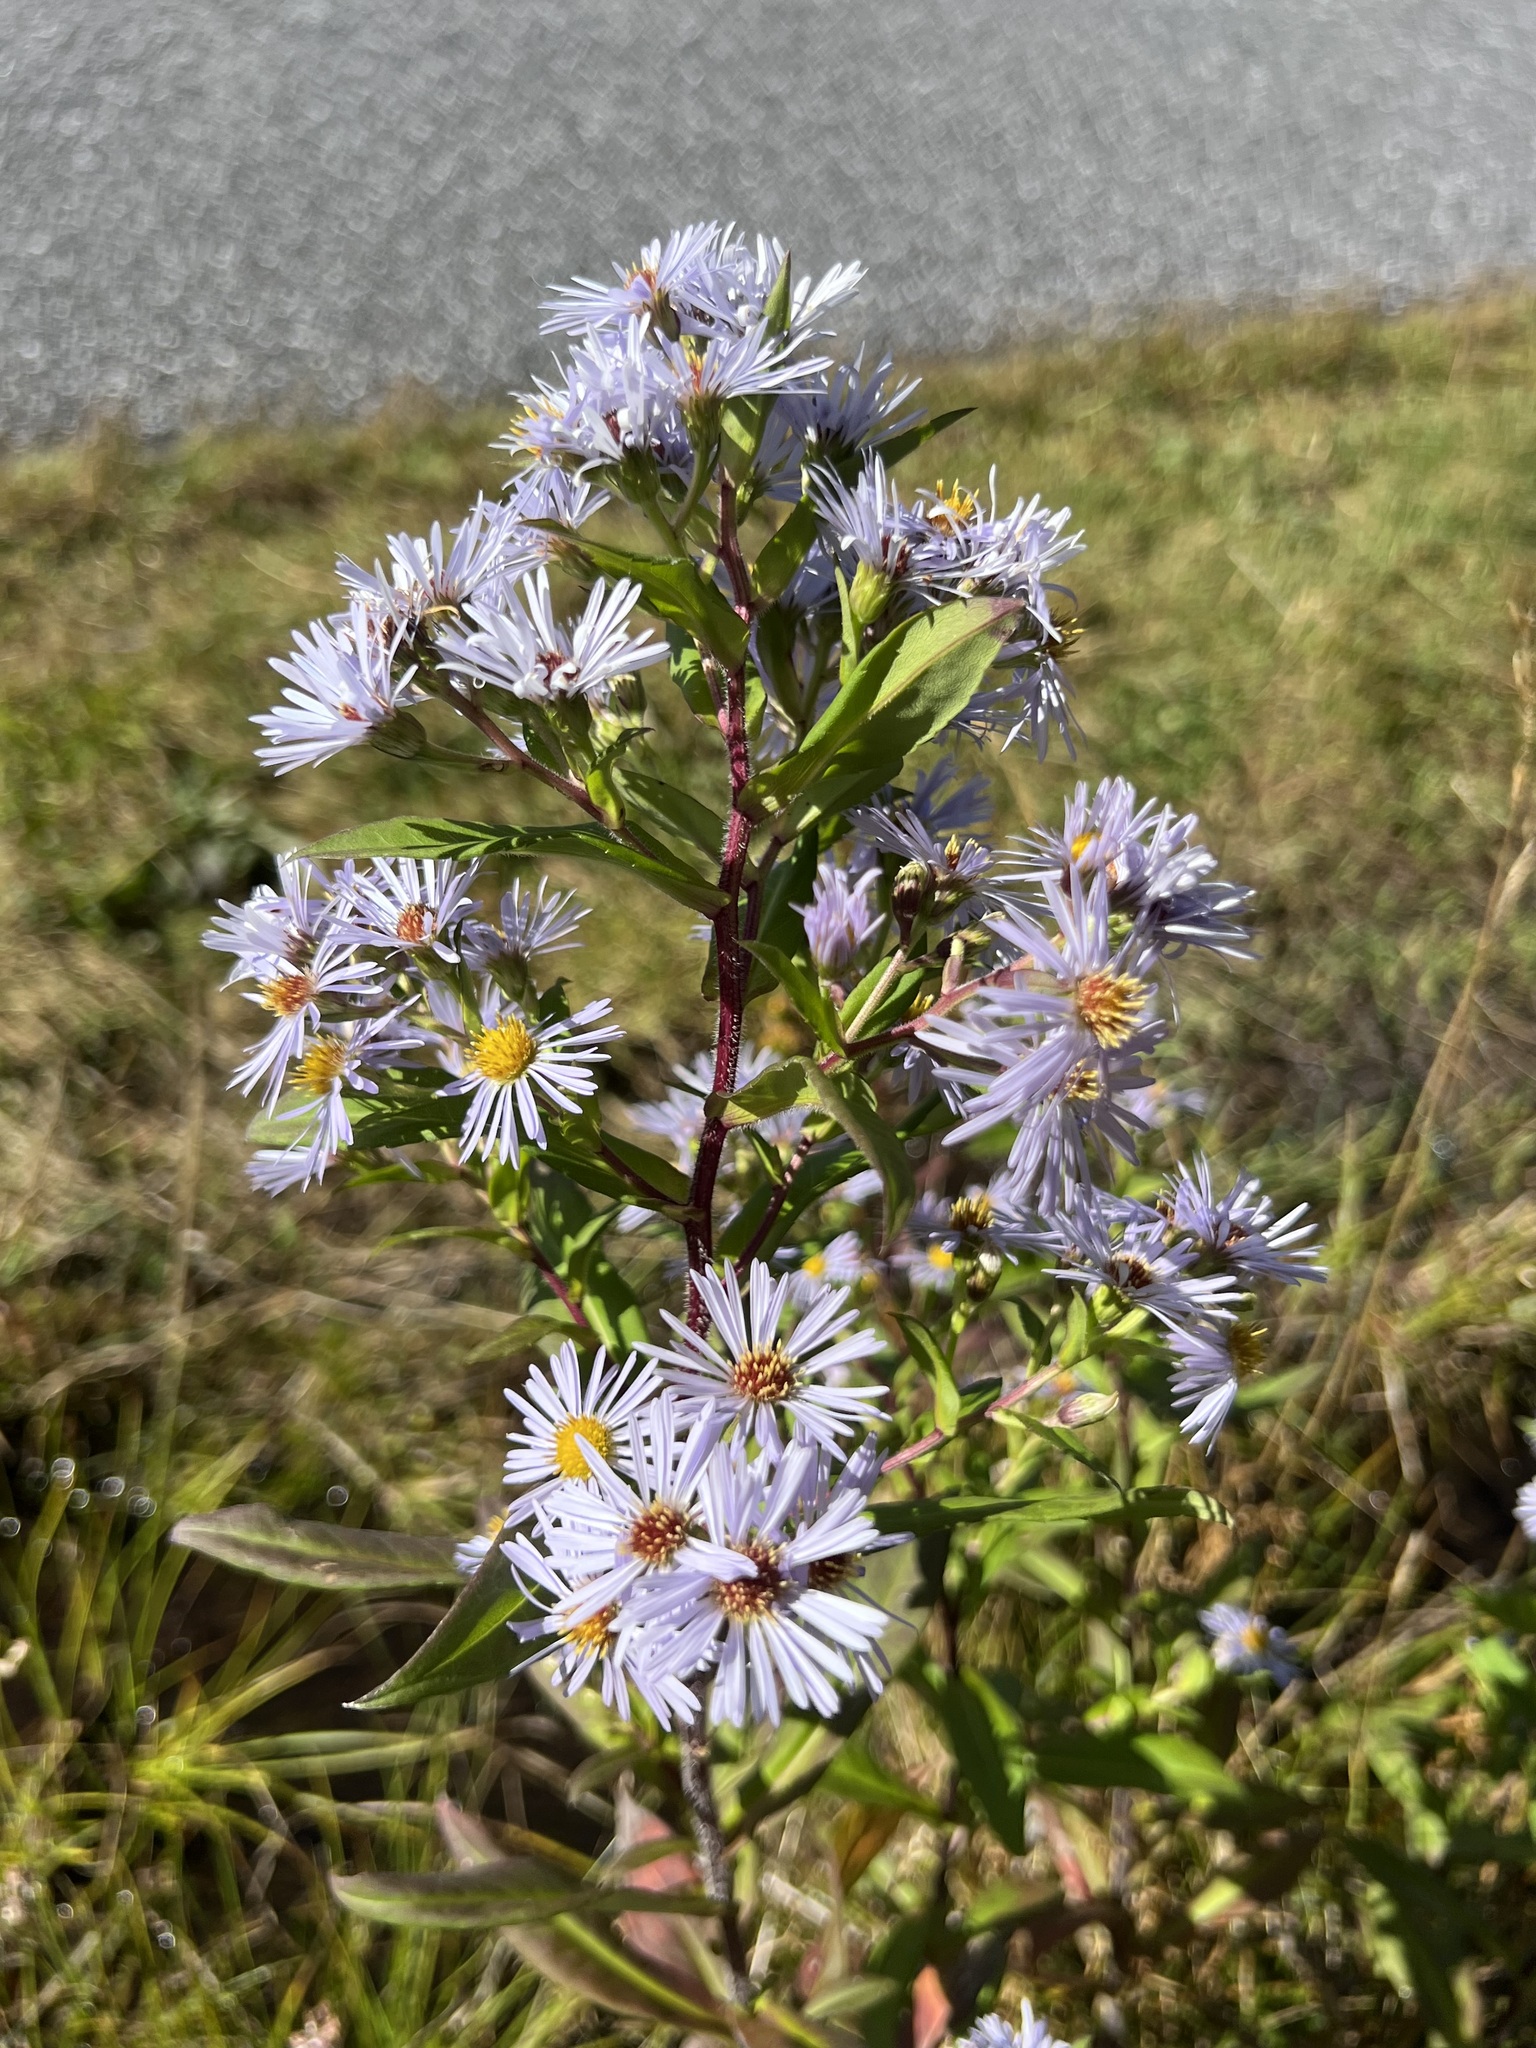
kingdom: Plantae
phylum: Tracheophyta
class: Magnoliopsida
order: Asterales
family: Asteraceae
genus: Symphyotrichum
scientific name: Symphyotrichum puniceum
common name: Bog aster
